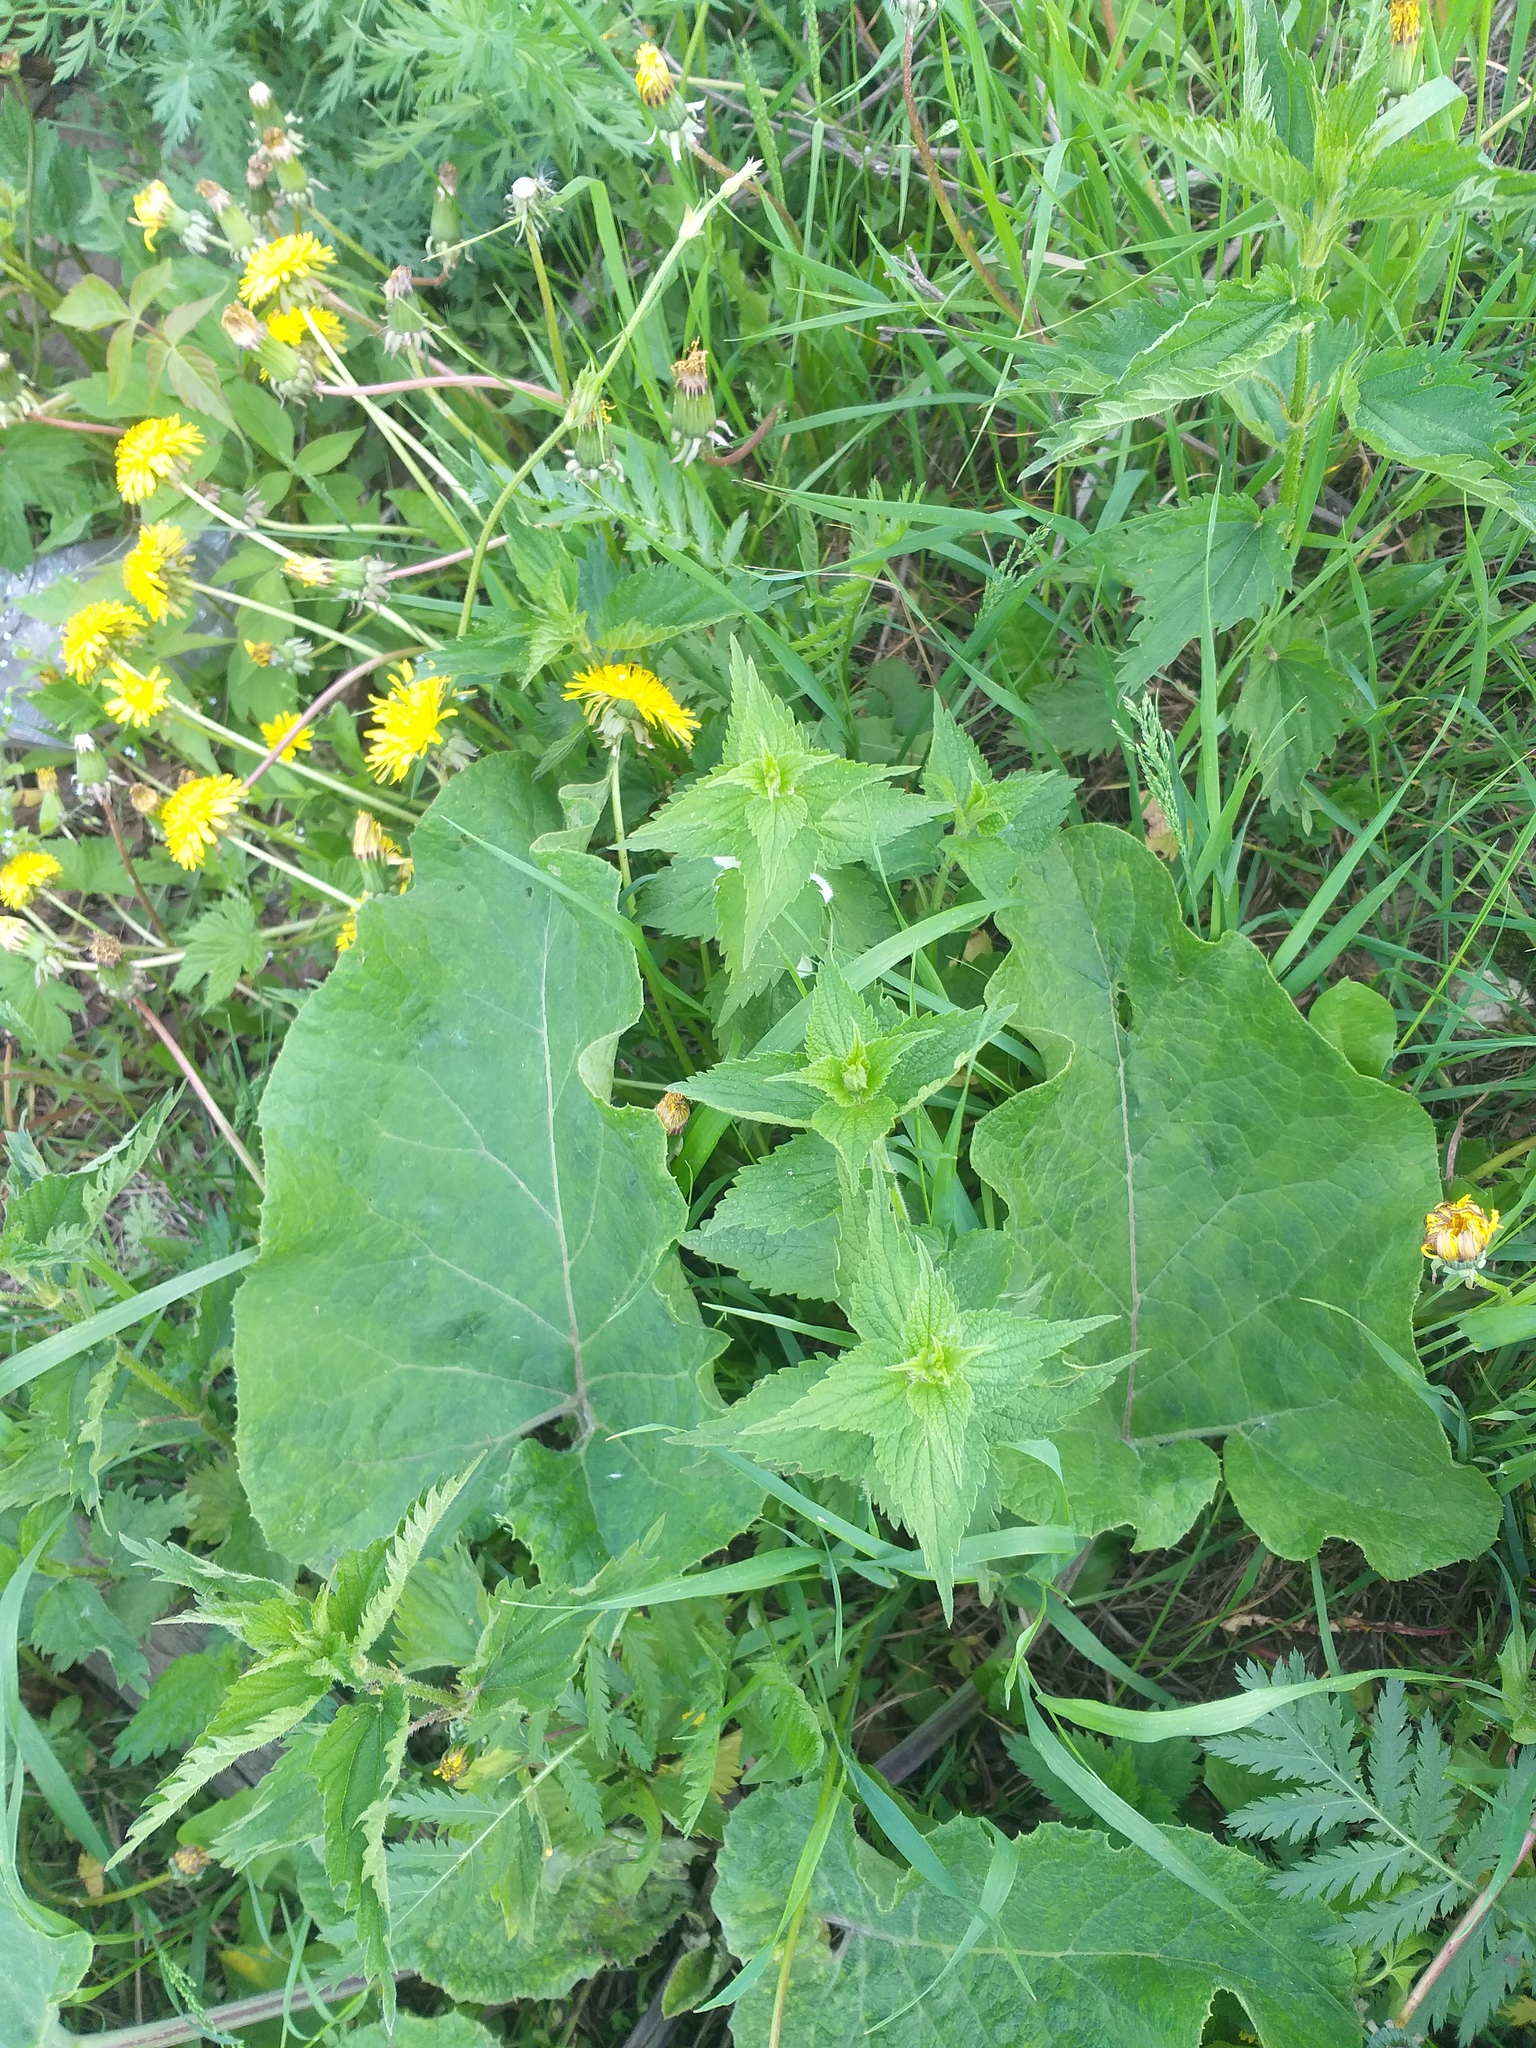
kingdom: Plantae
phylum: Tracheophyta
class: Magnoliopsida
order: Lamiales
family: Lamiaceae
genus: Lamium
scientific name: Lamium album
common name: White dead-nettle
